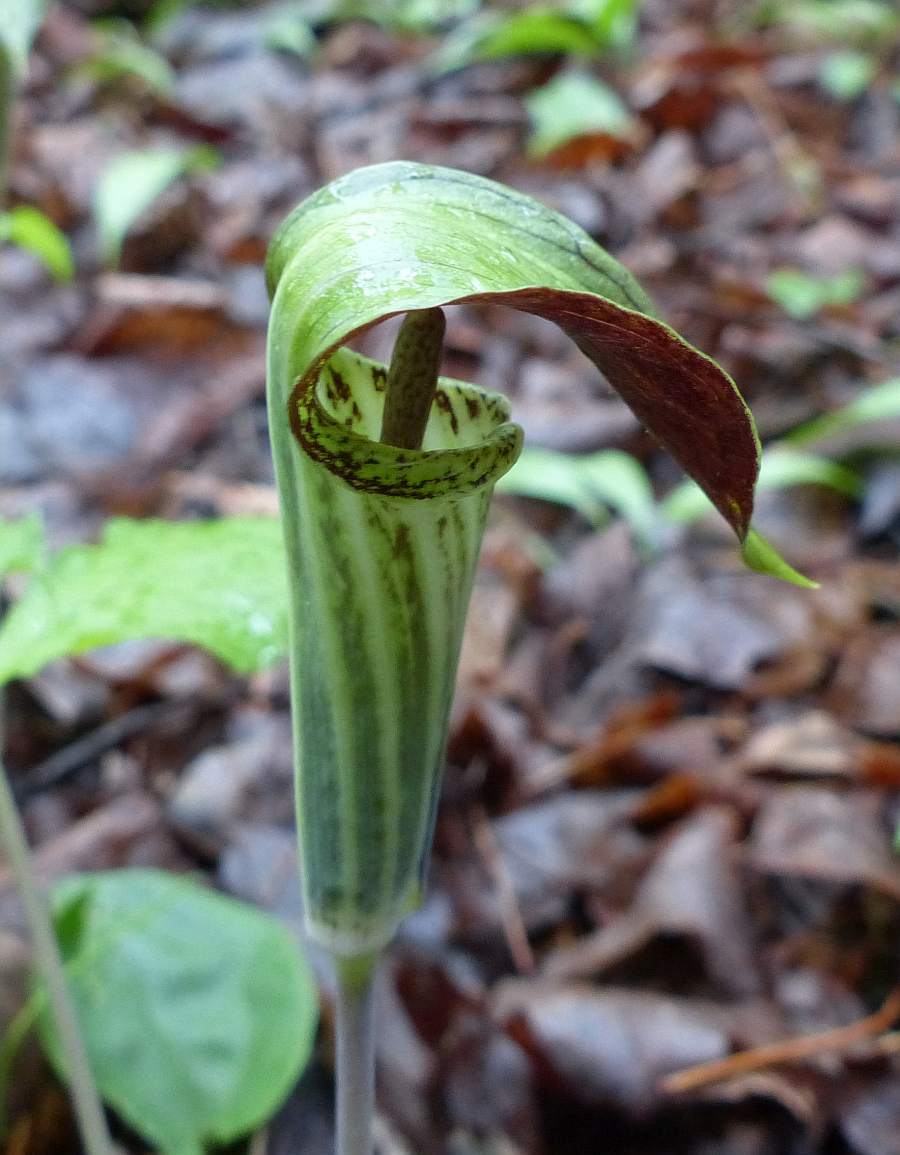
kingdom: Plantae
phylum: Tracheophyta
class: Liliopsida
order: Alismatales
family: Araceae
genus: Arisaema
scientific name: Arisaema triphyllum
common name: Jack-in-the-pulpit
